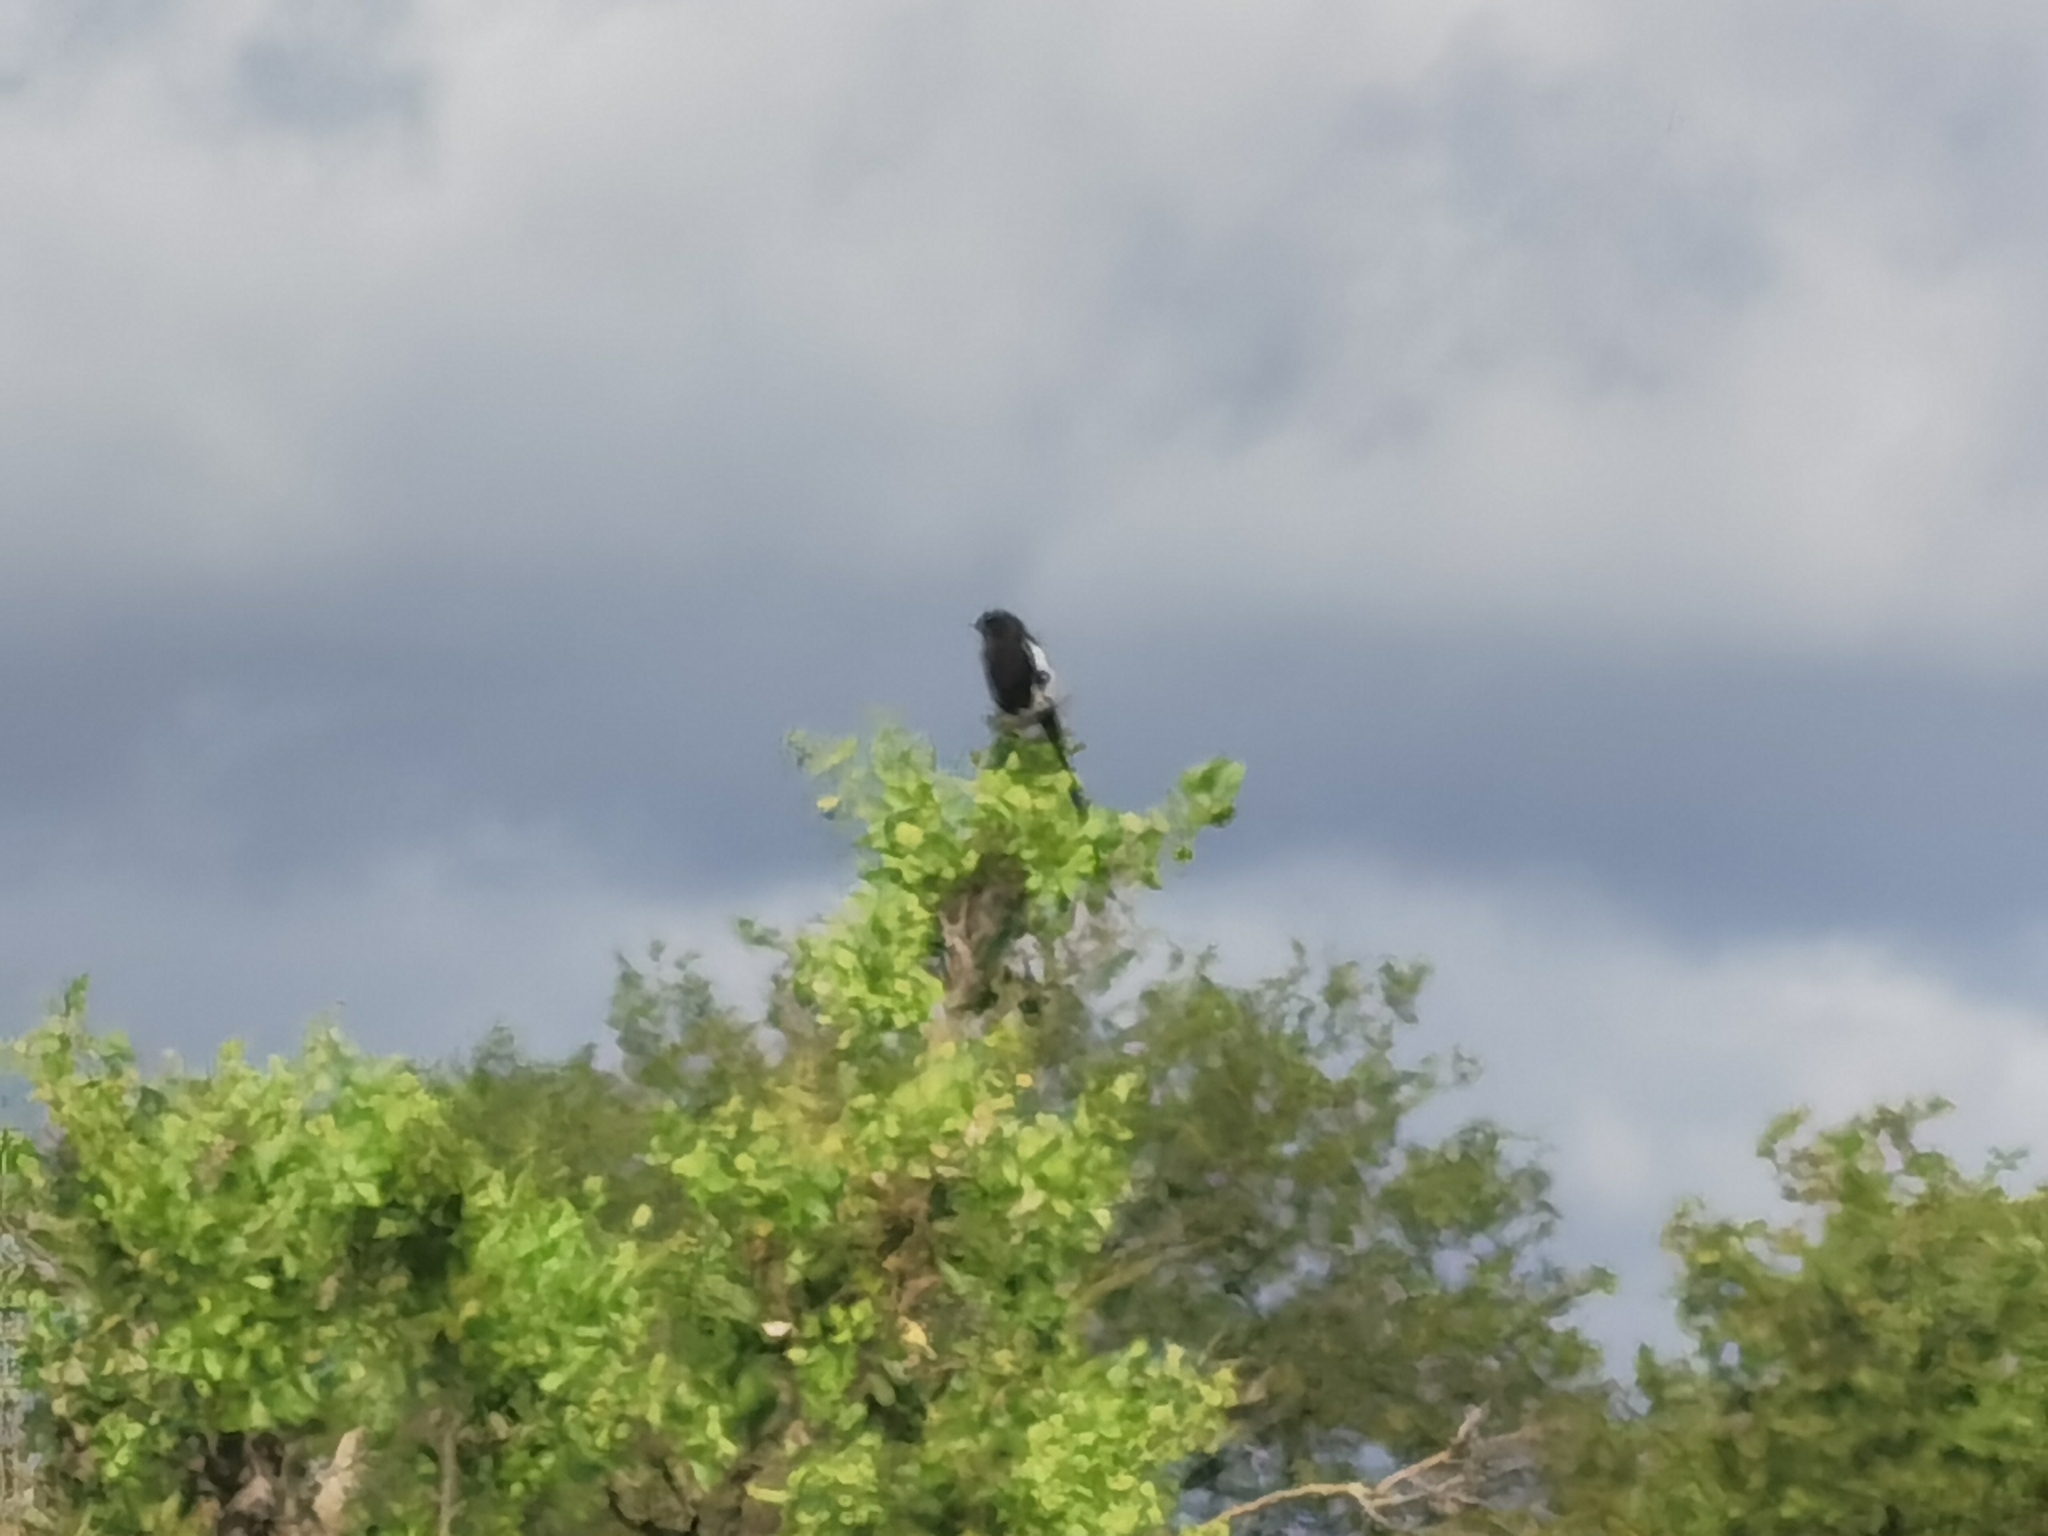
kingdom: Animalia
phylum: Chordata
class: Aves
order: Passeriformes
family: Laniidae
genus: Urolestes
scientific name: Urolestes melanoleucus
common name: Magpie shrike
